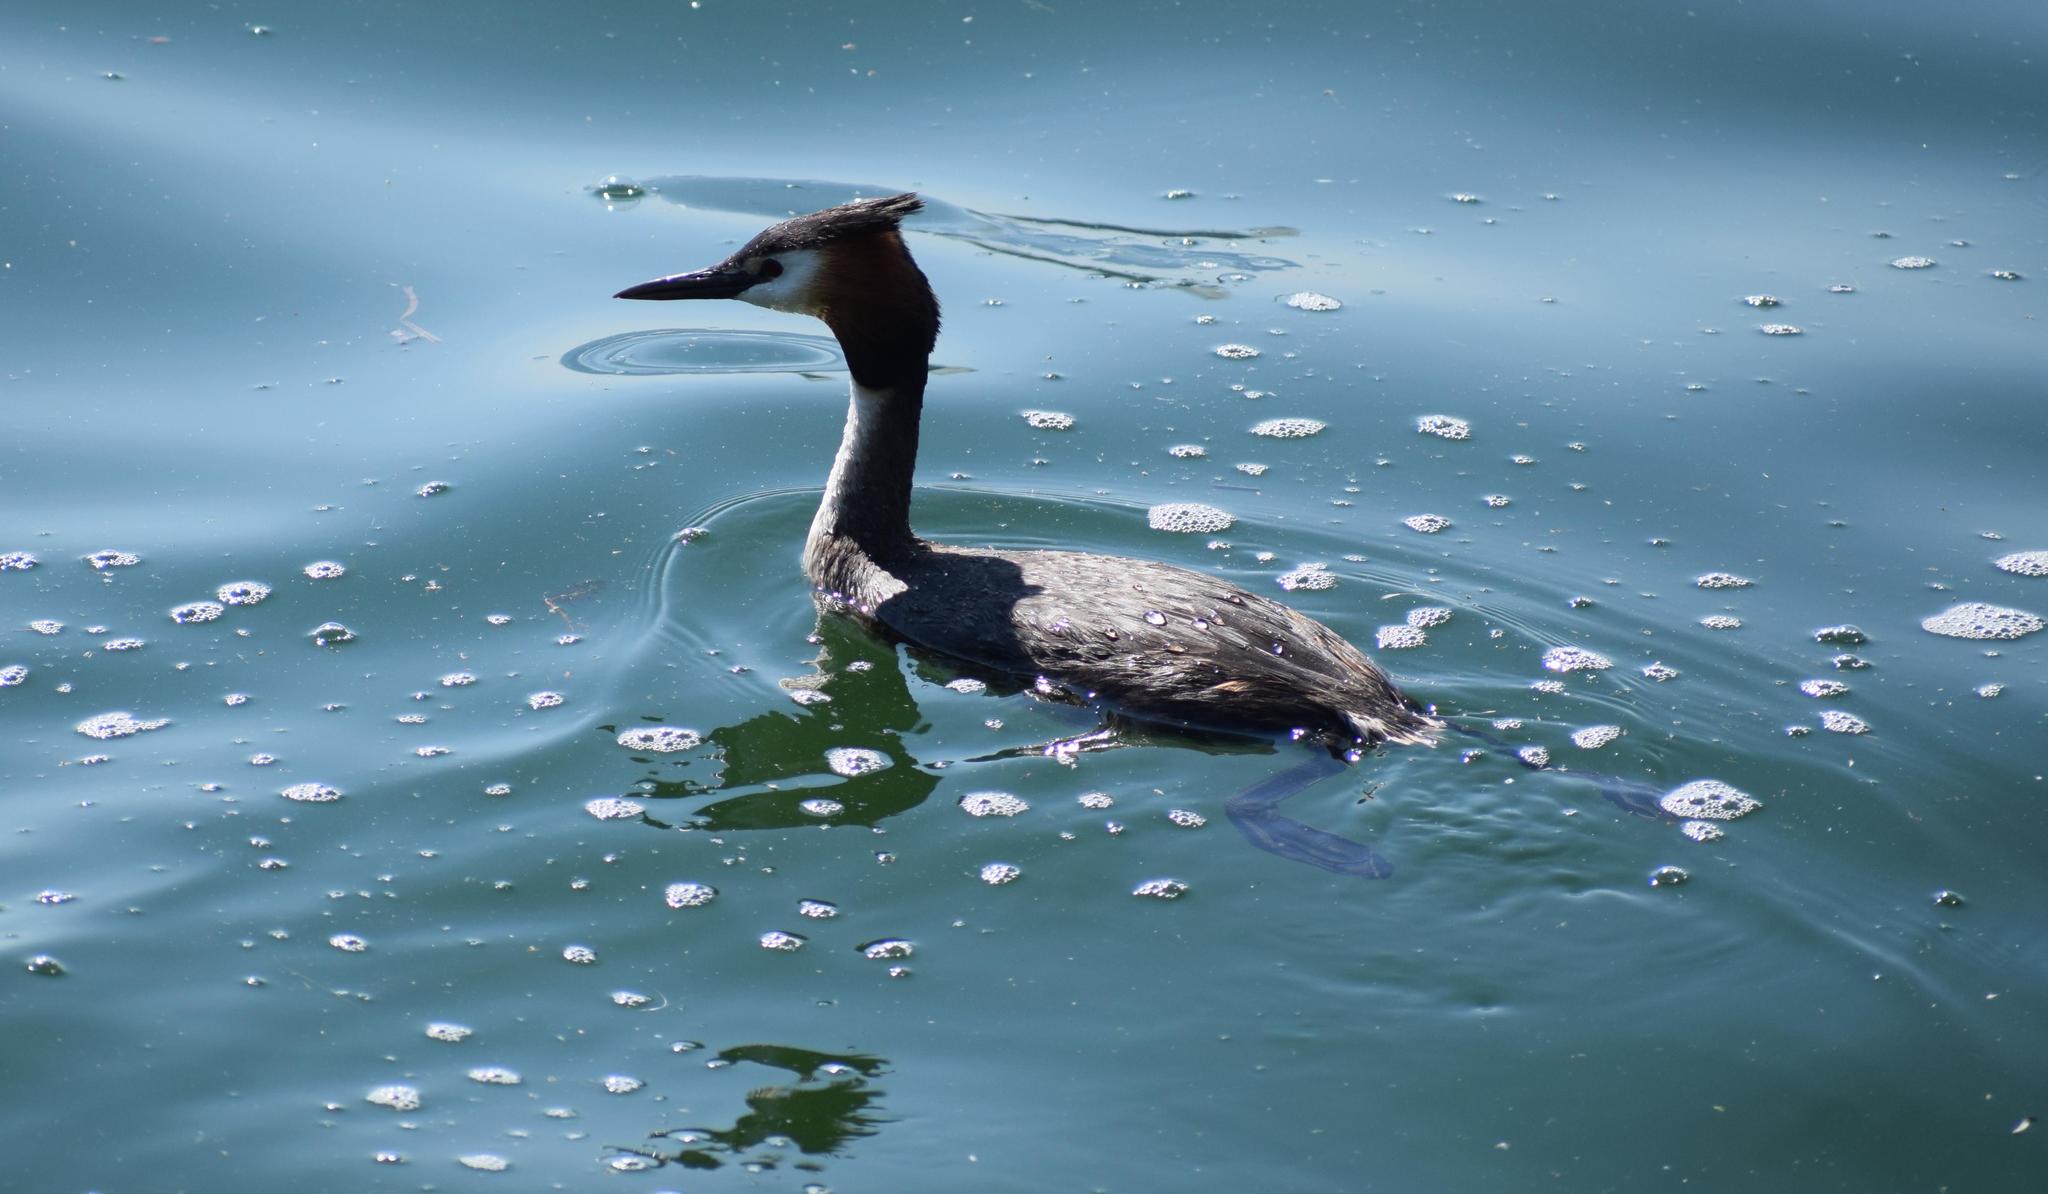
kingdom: Animalia
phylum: Chordata
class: Aves
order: Podicipediformes
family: Podicipedidae
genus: Podiceps
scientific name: Podiceps cristatus
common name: Great crested grebe
